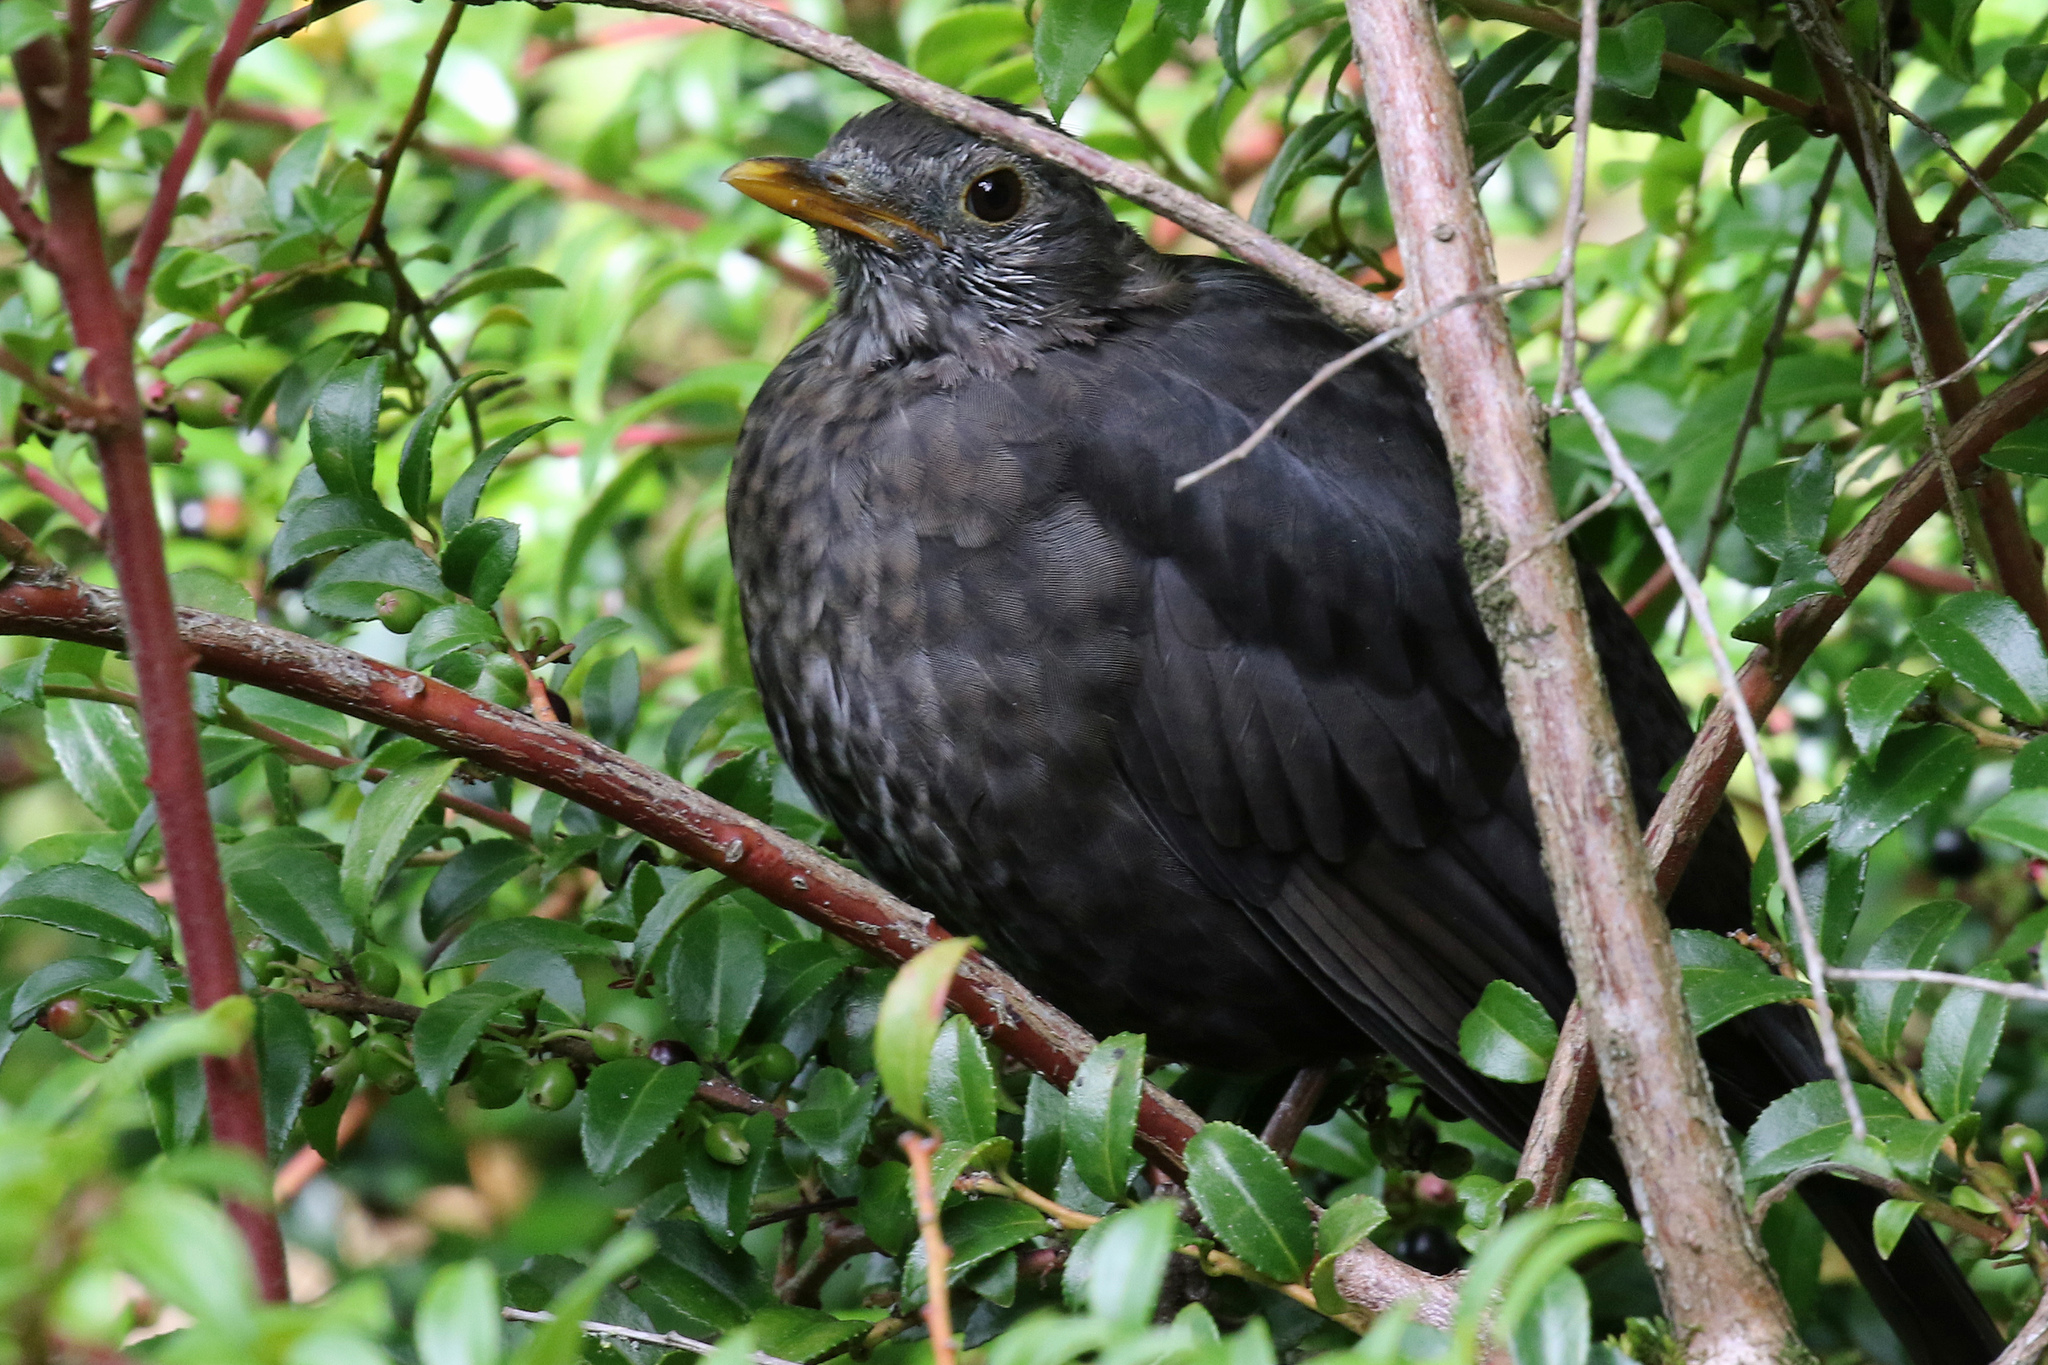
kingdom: Animalia
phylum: Chordata
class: Aves
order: Passeriformes
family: Turdidae
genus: Turdus
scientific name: Turdus merula
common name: Common blackbird
